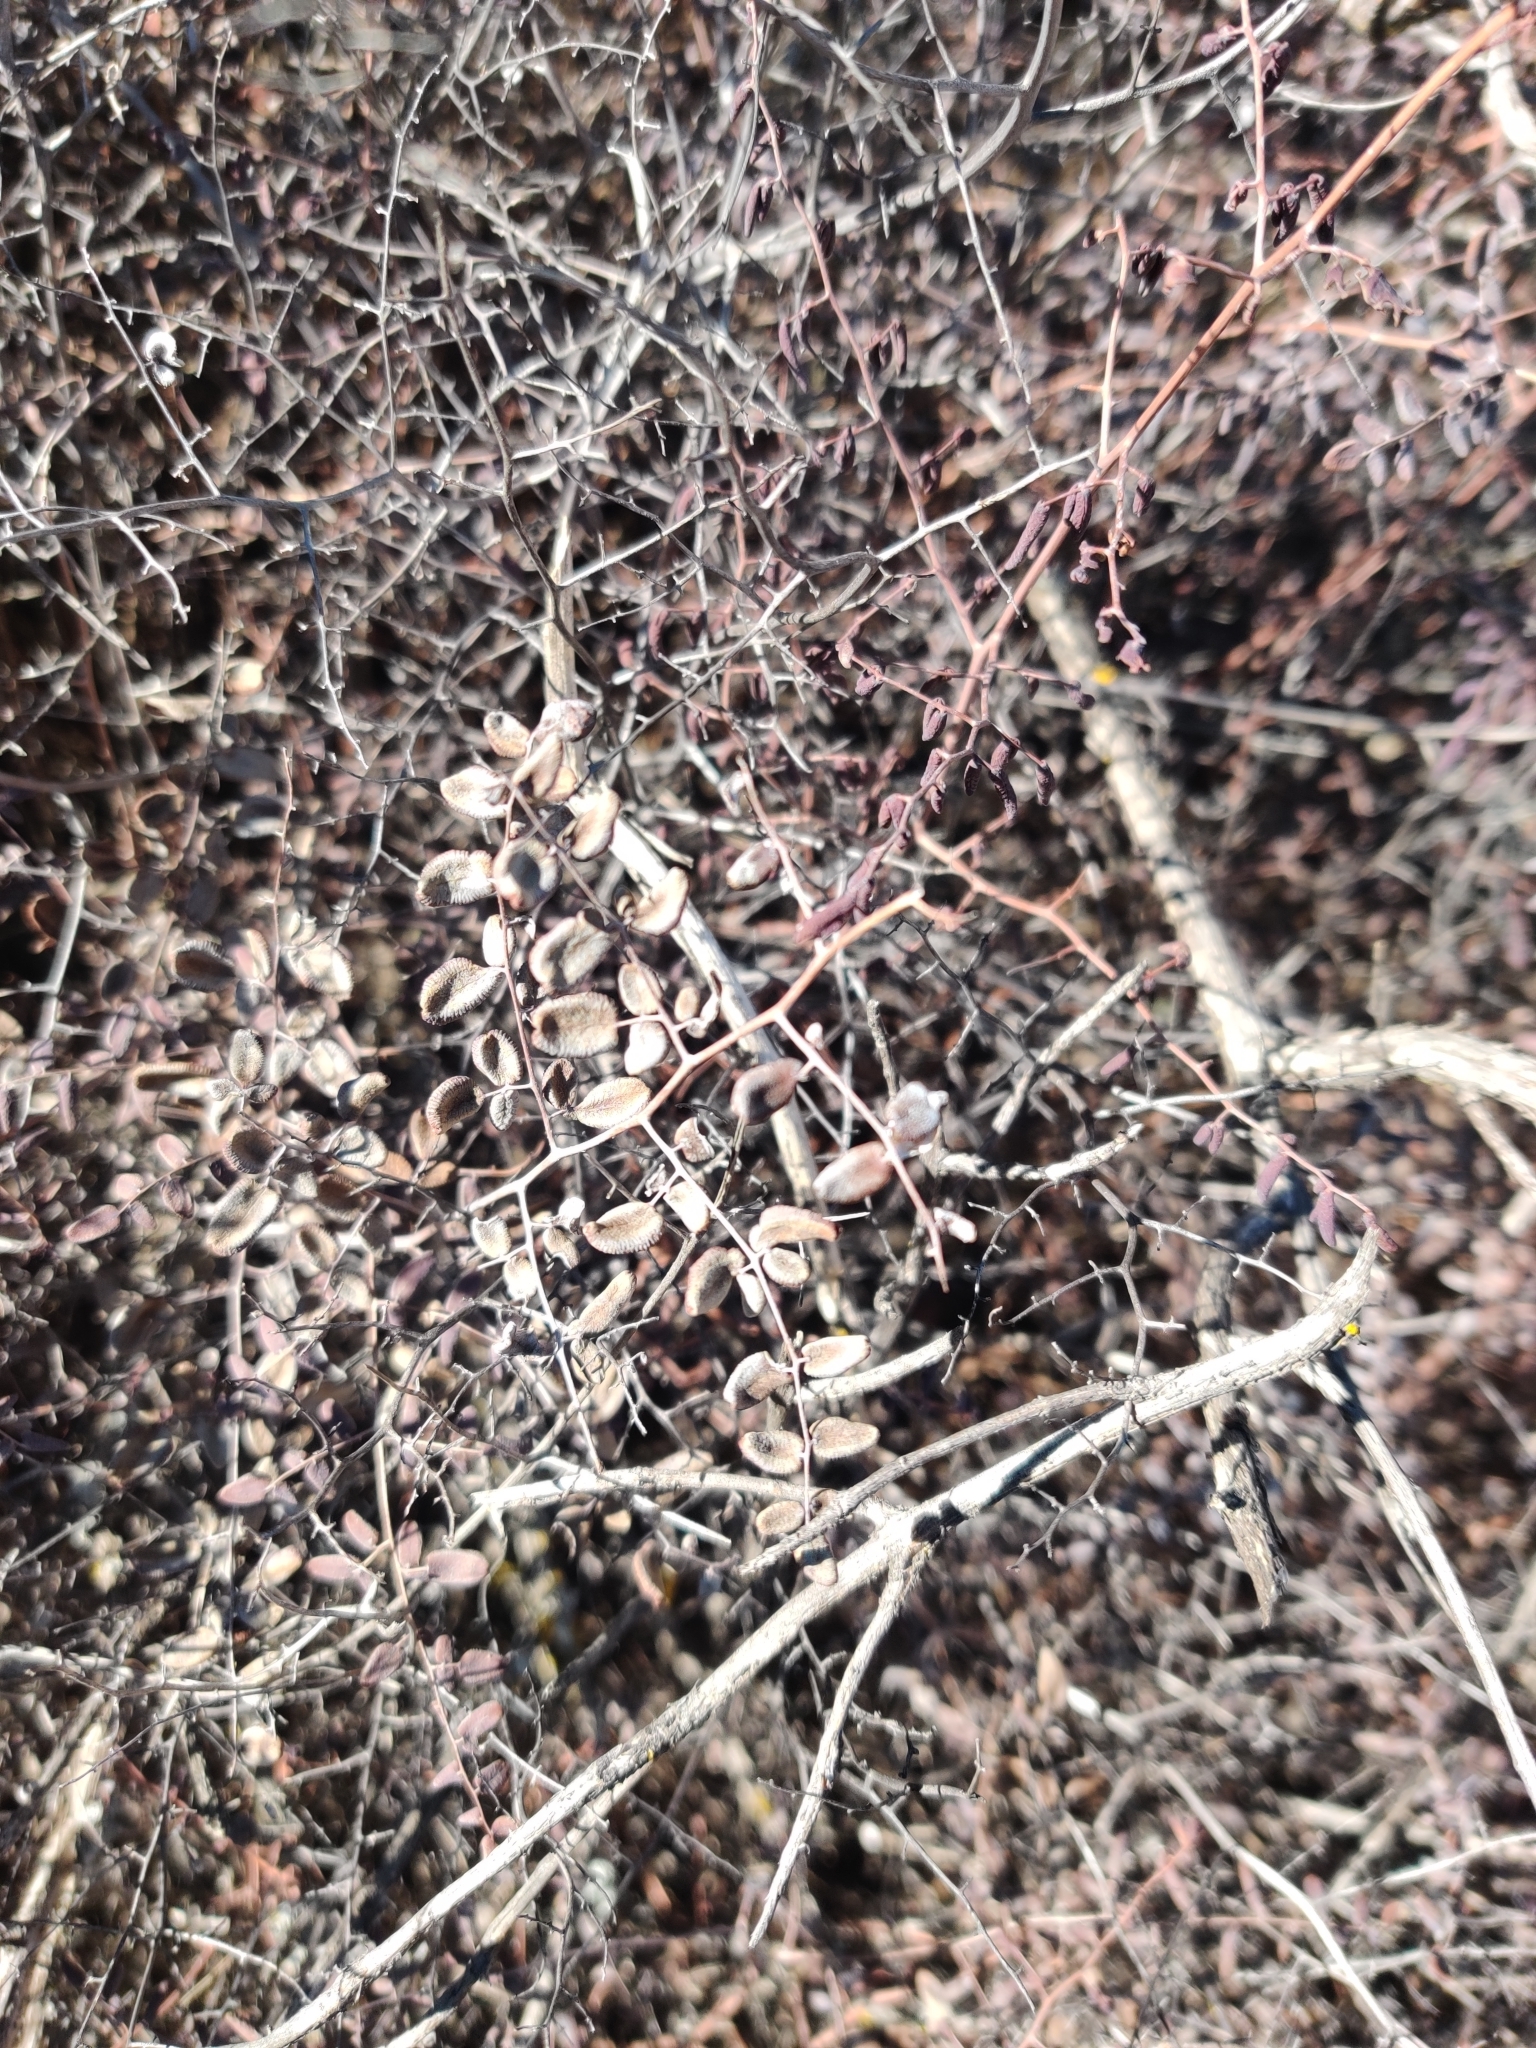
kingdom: Plantae
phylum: Tracheophyta
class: Polypodiopsida
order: Polypodiales
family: Pteridaceae
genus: Pellaea
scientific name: Pellaea andromedifolia
